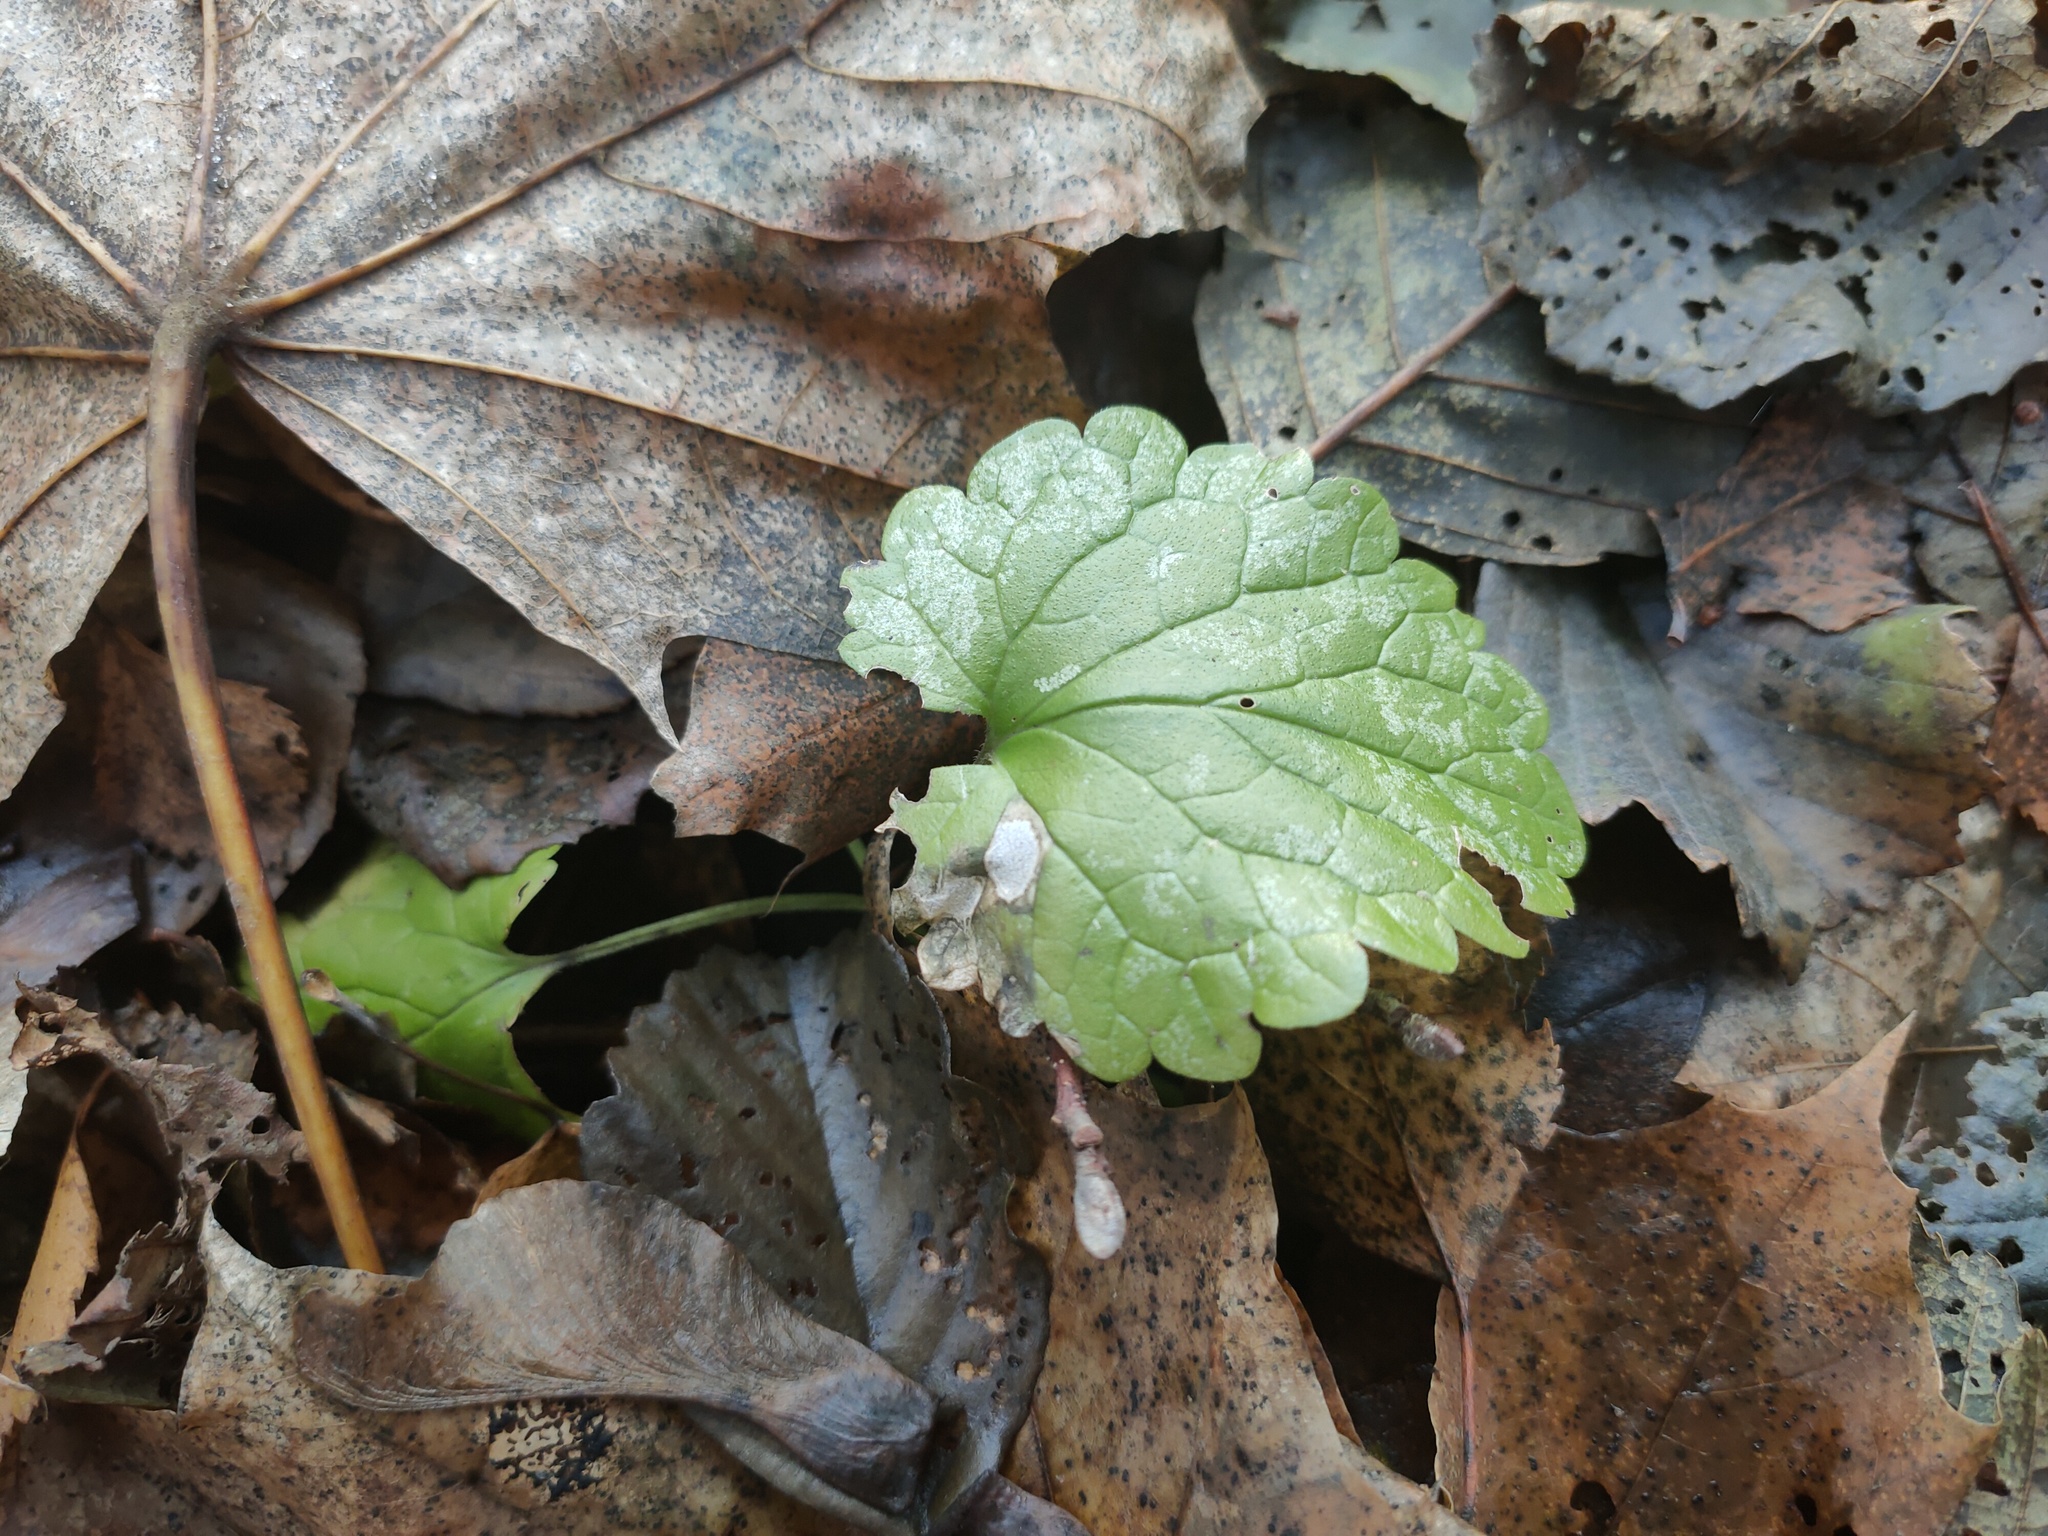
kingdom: Plantae
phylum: Tracheophyta
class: Magnoliopsida
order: Lamiales
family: Lamiaceae
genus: Glechoma
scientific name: Glechoma hederacea
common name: Ground ivy
